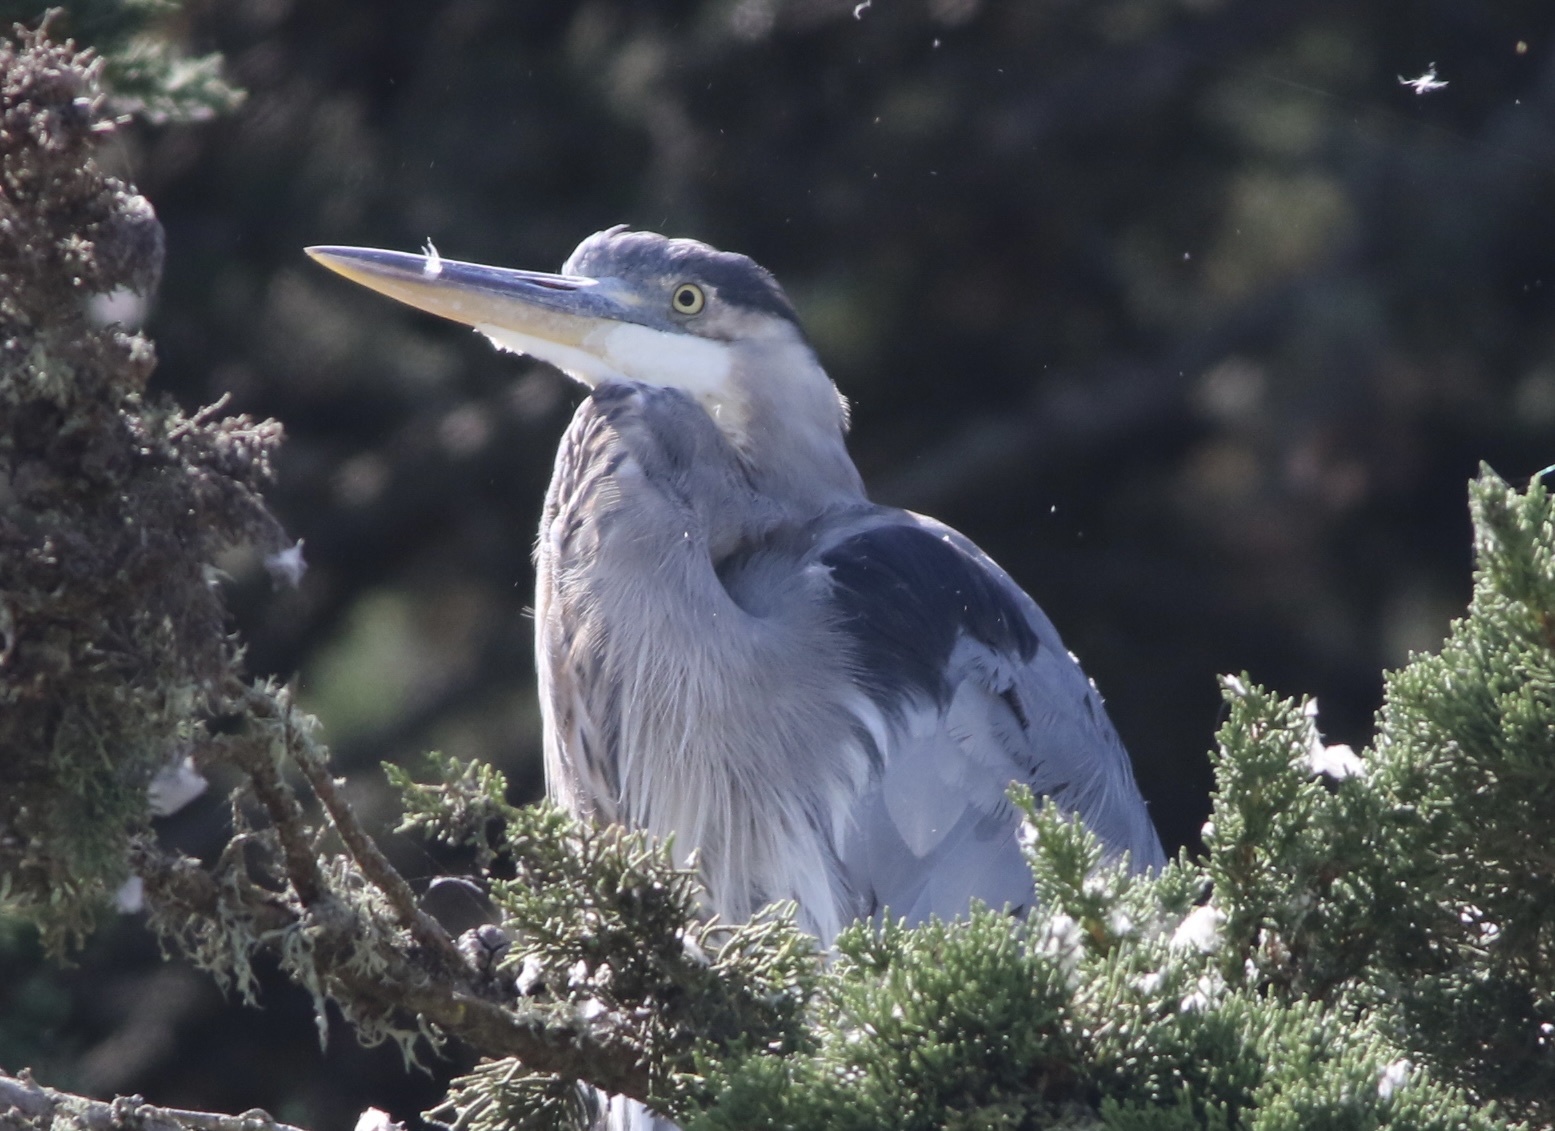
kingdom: Animalia
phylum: Chordata
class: Aves
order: Pelecaniformes
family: Ardeidae
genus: Ardea
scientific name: Ardea herodias
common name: Great blue heron
